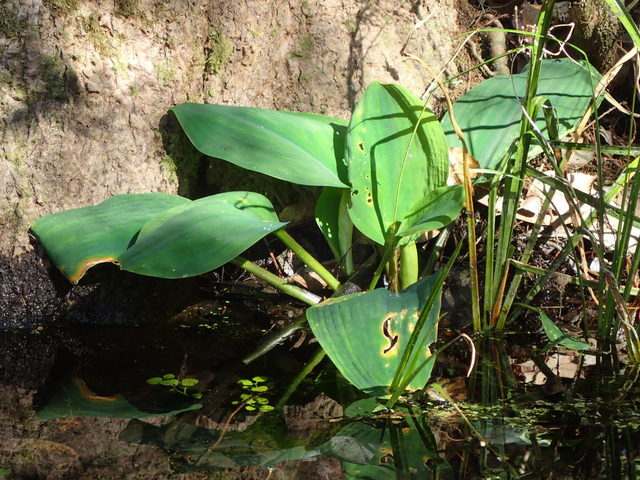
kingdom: Plantae
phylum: Tracheophyta
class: Liliopsida
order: Alismatales
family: Araceae
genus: Orontium
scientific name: Orontium aquaticum
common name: Golden-club
